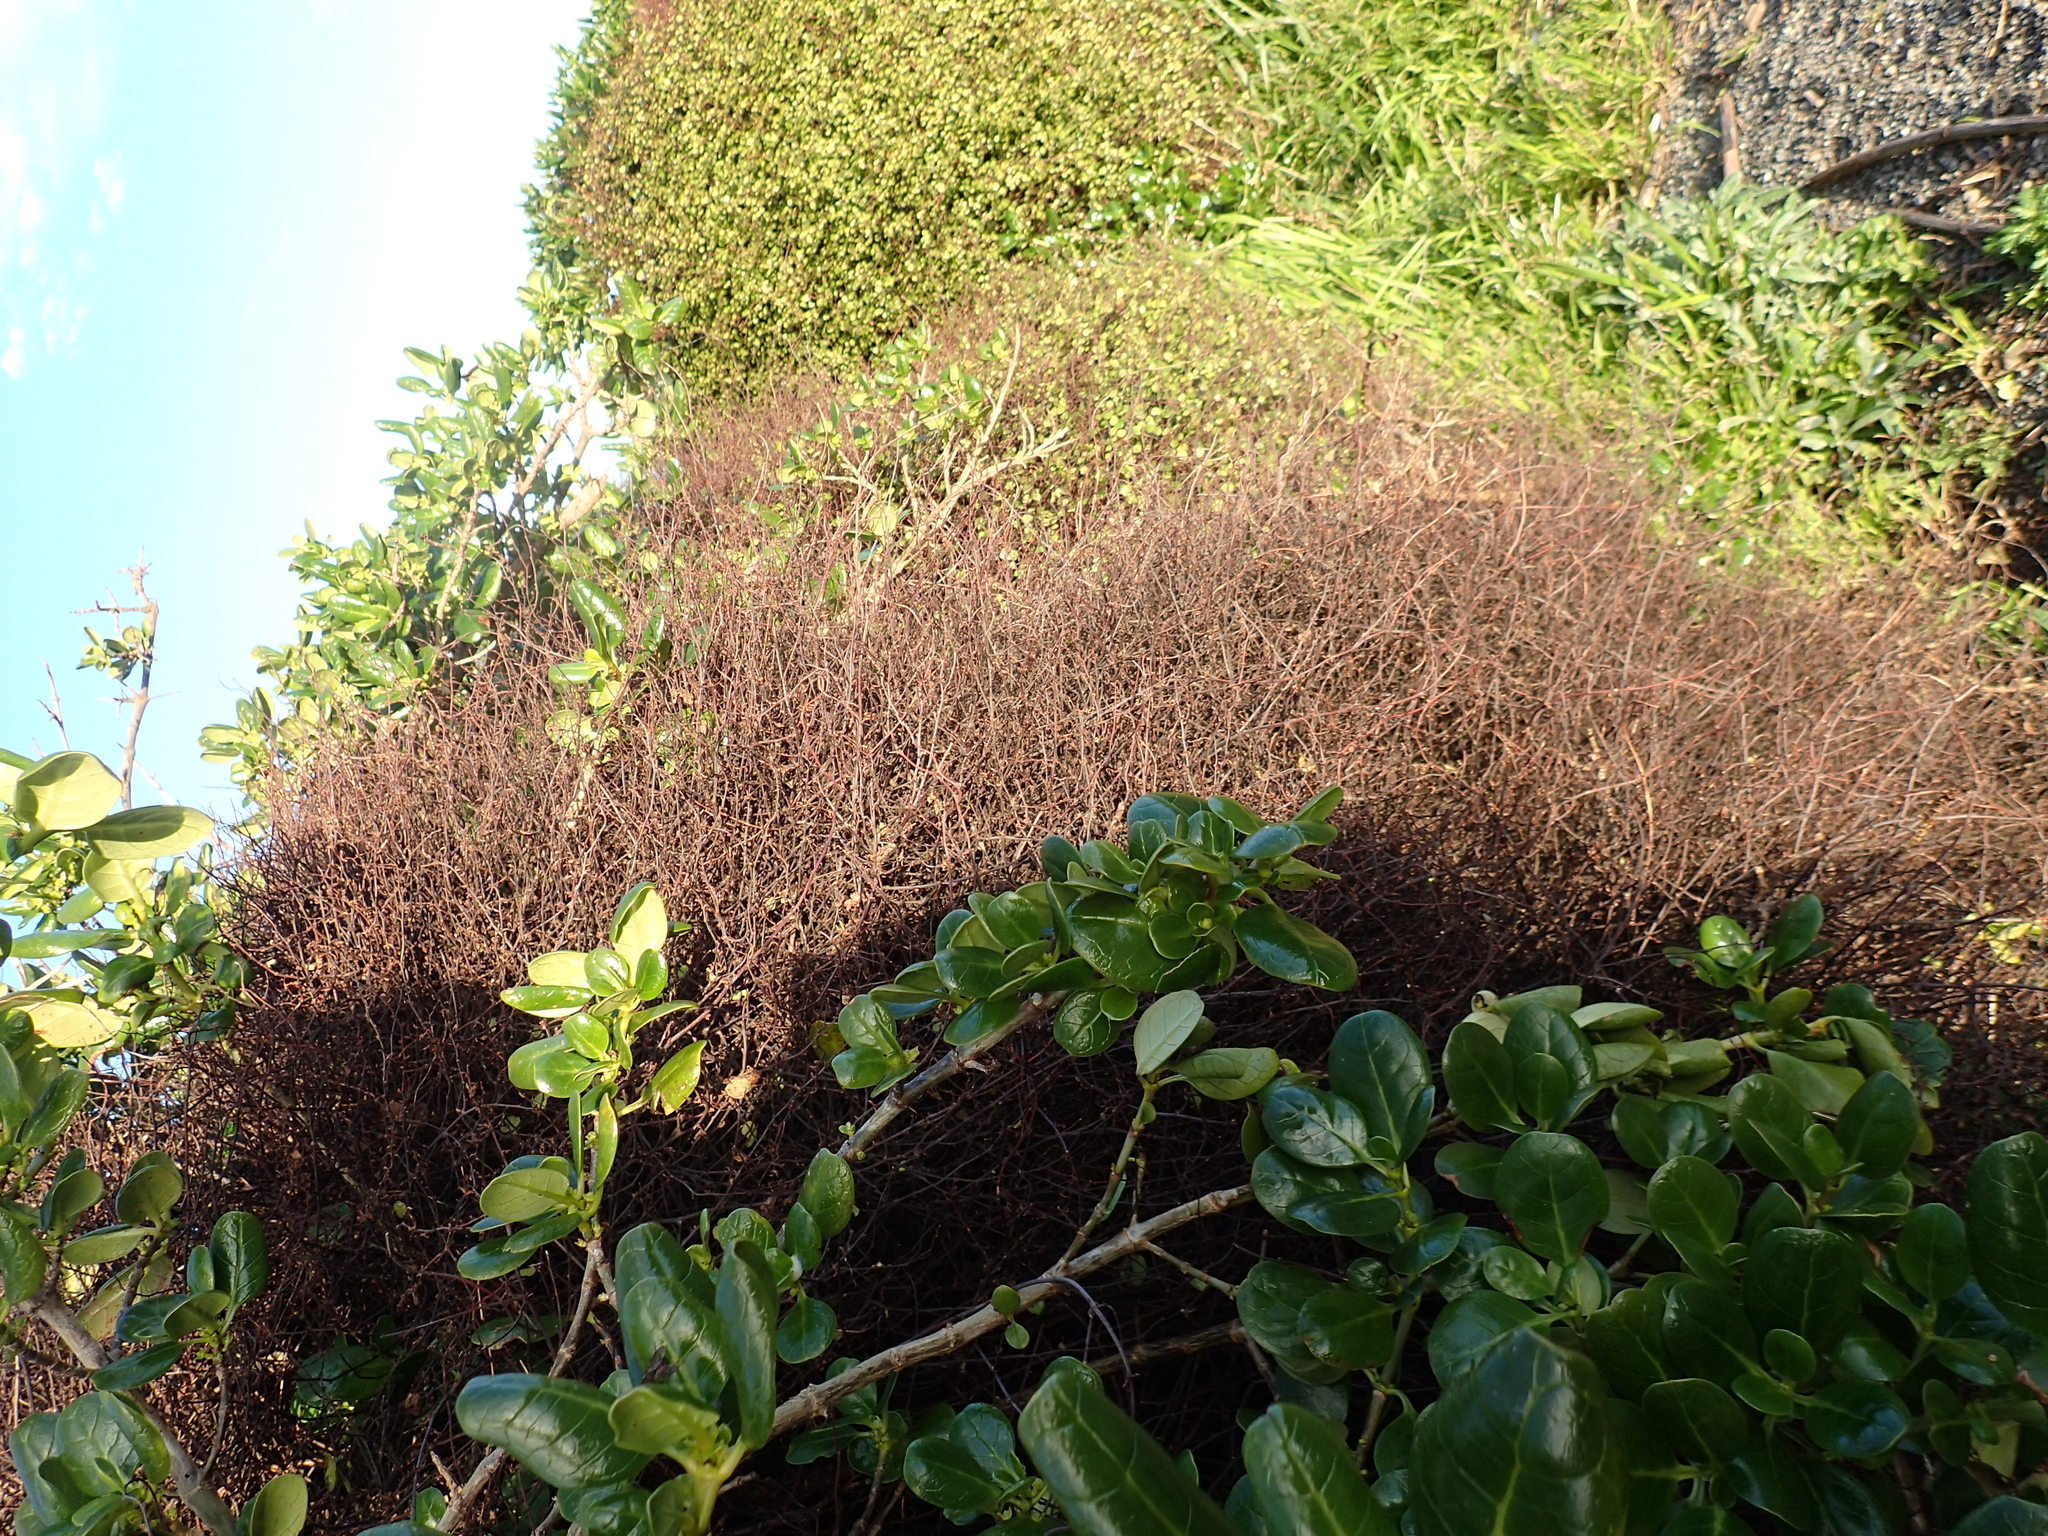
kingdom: Plantae
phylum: Tracheophyta
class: Magnoliopsida
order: Caryophyllales
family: Polygonaceae
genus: Muehlenbeckia
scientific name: Muehlenbeckia complexa
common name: Wireplant
